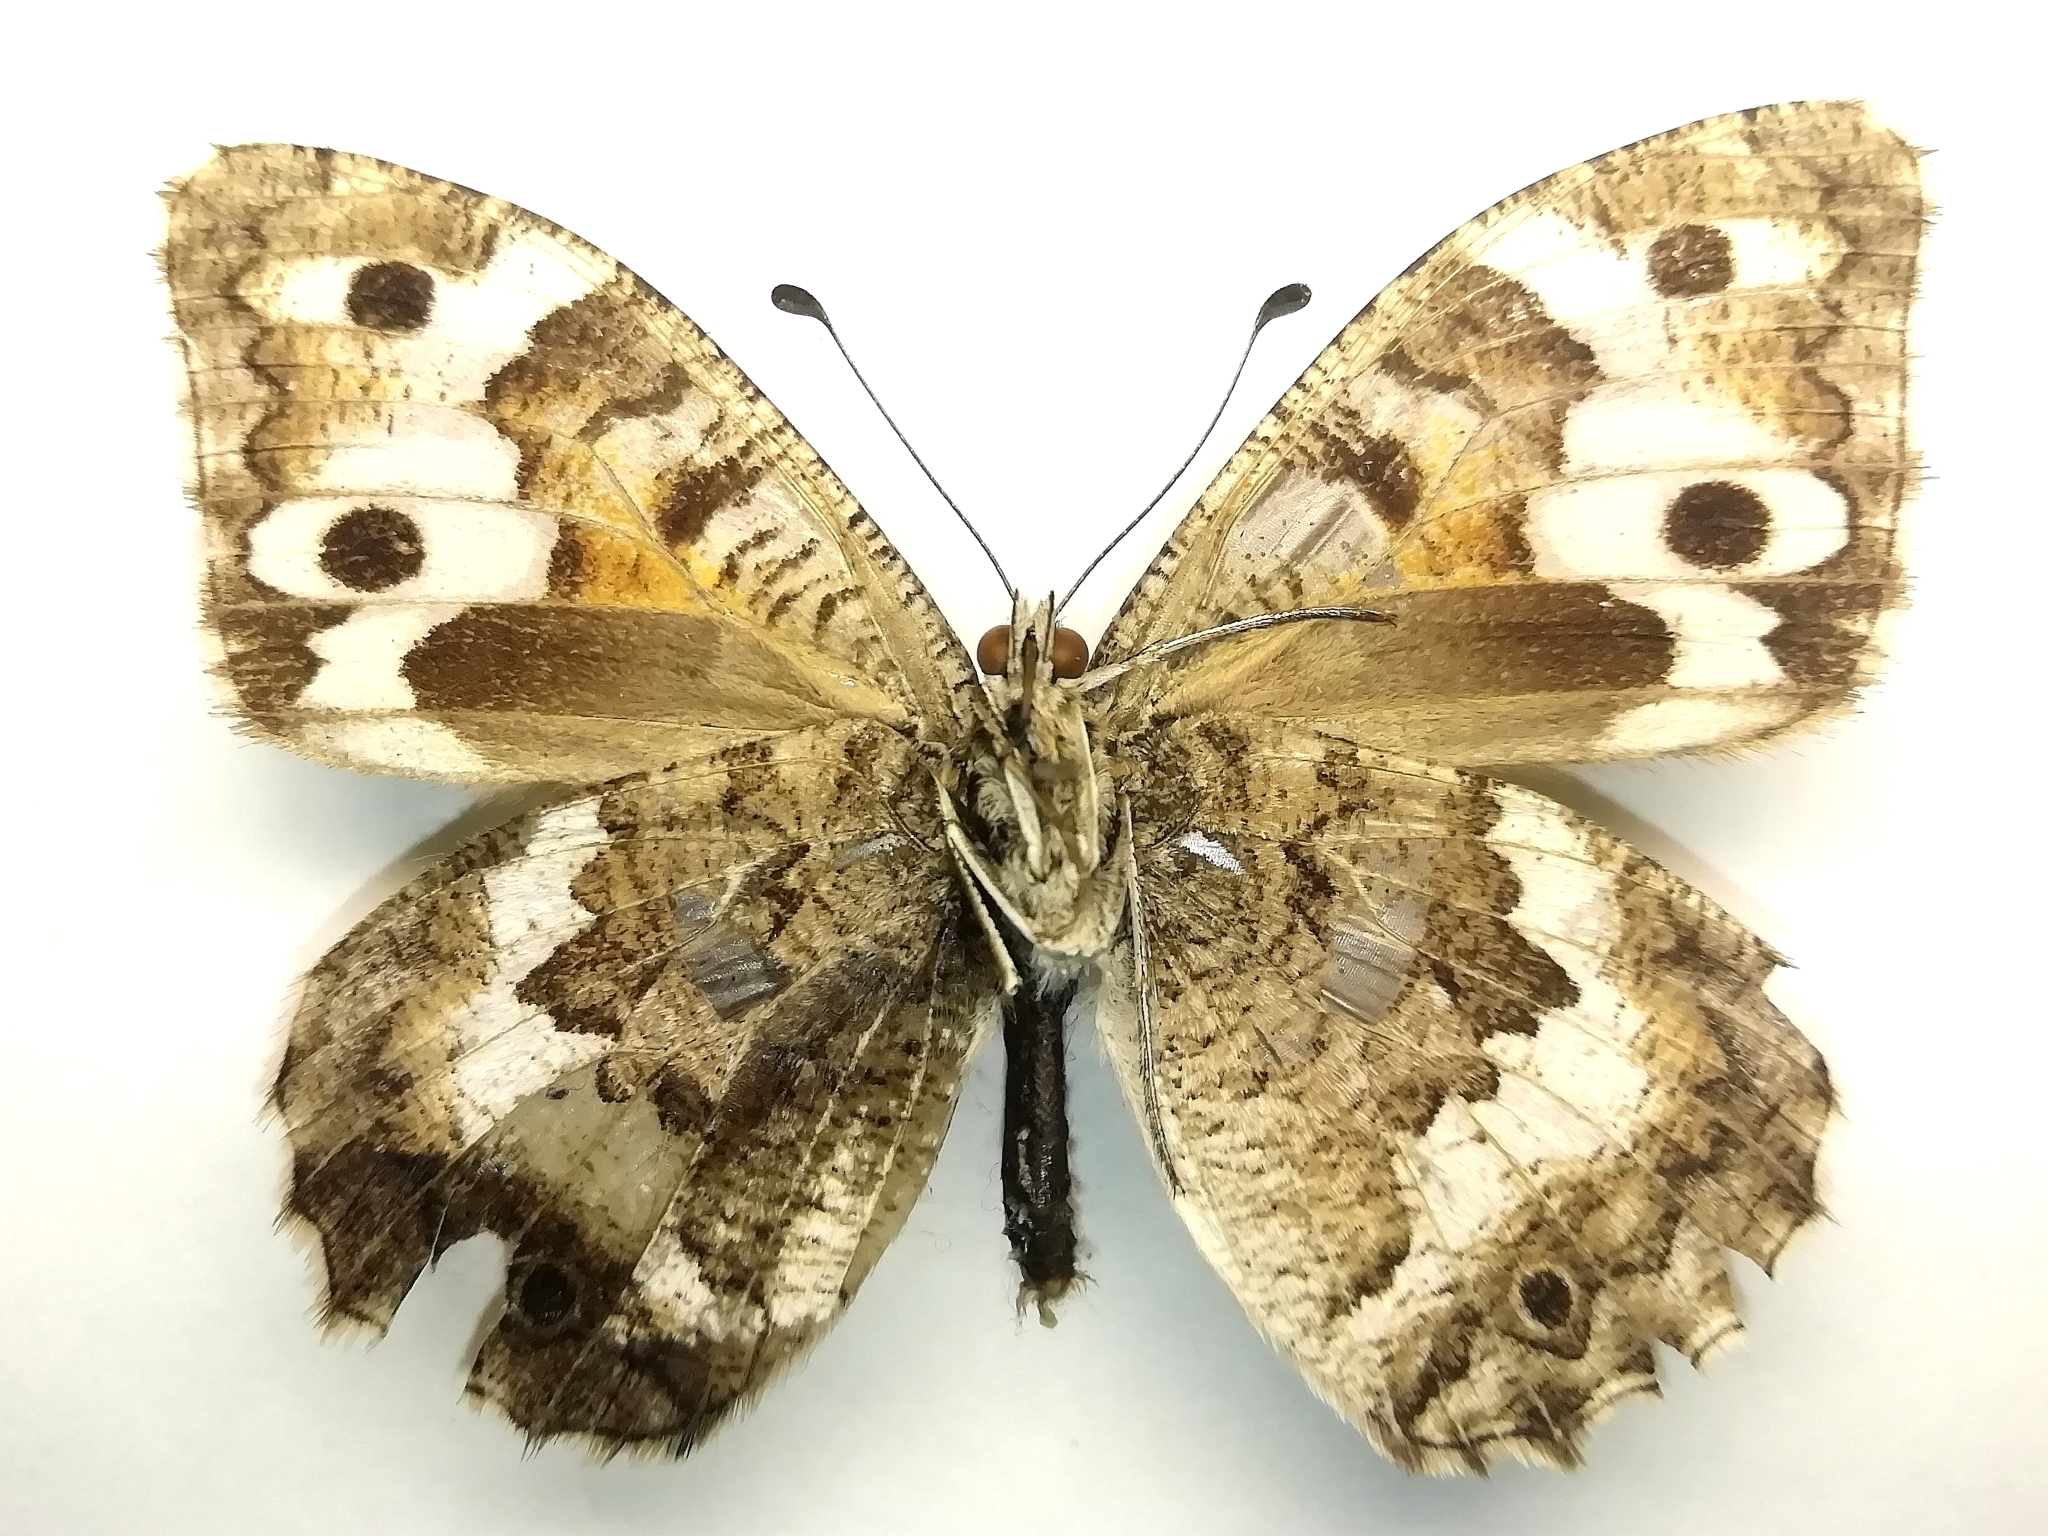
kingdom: Animalia
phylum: Arthropoda
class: Insecta
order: Lepidoptera
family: Nymphalidae
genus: Satyrus
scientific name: Satyrus Chazara enervata
